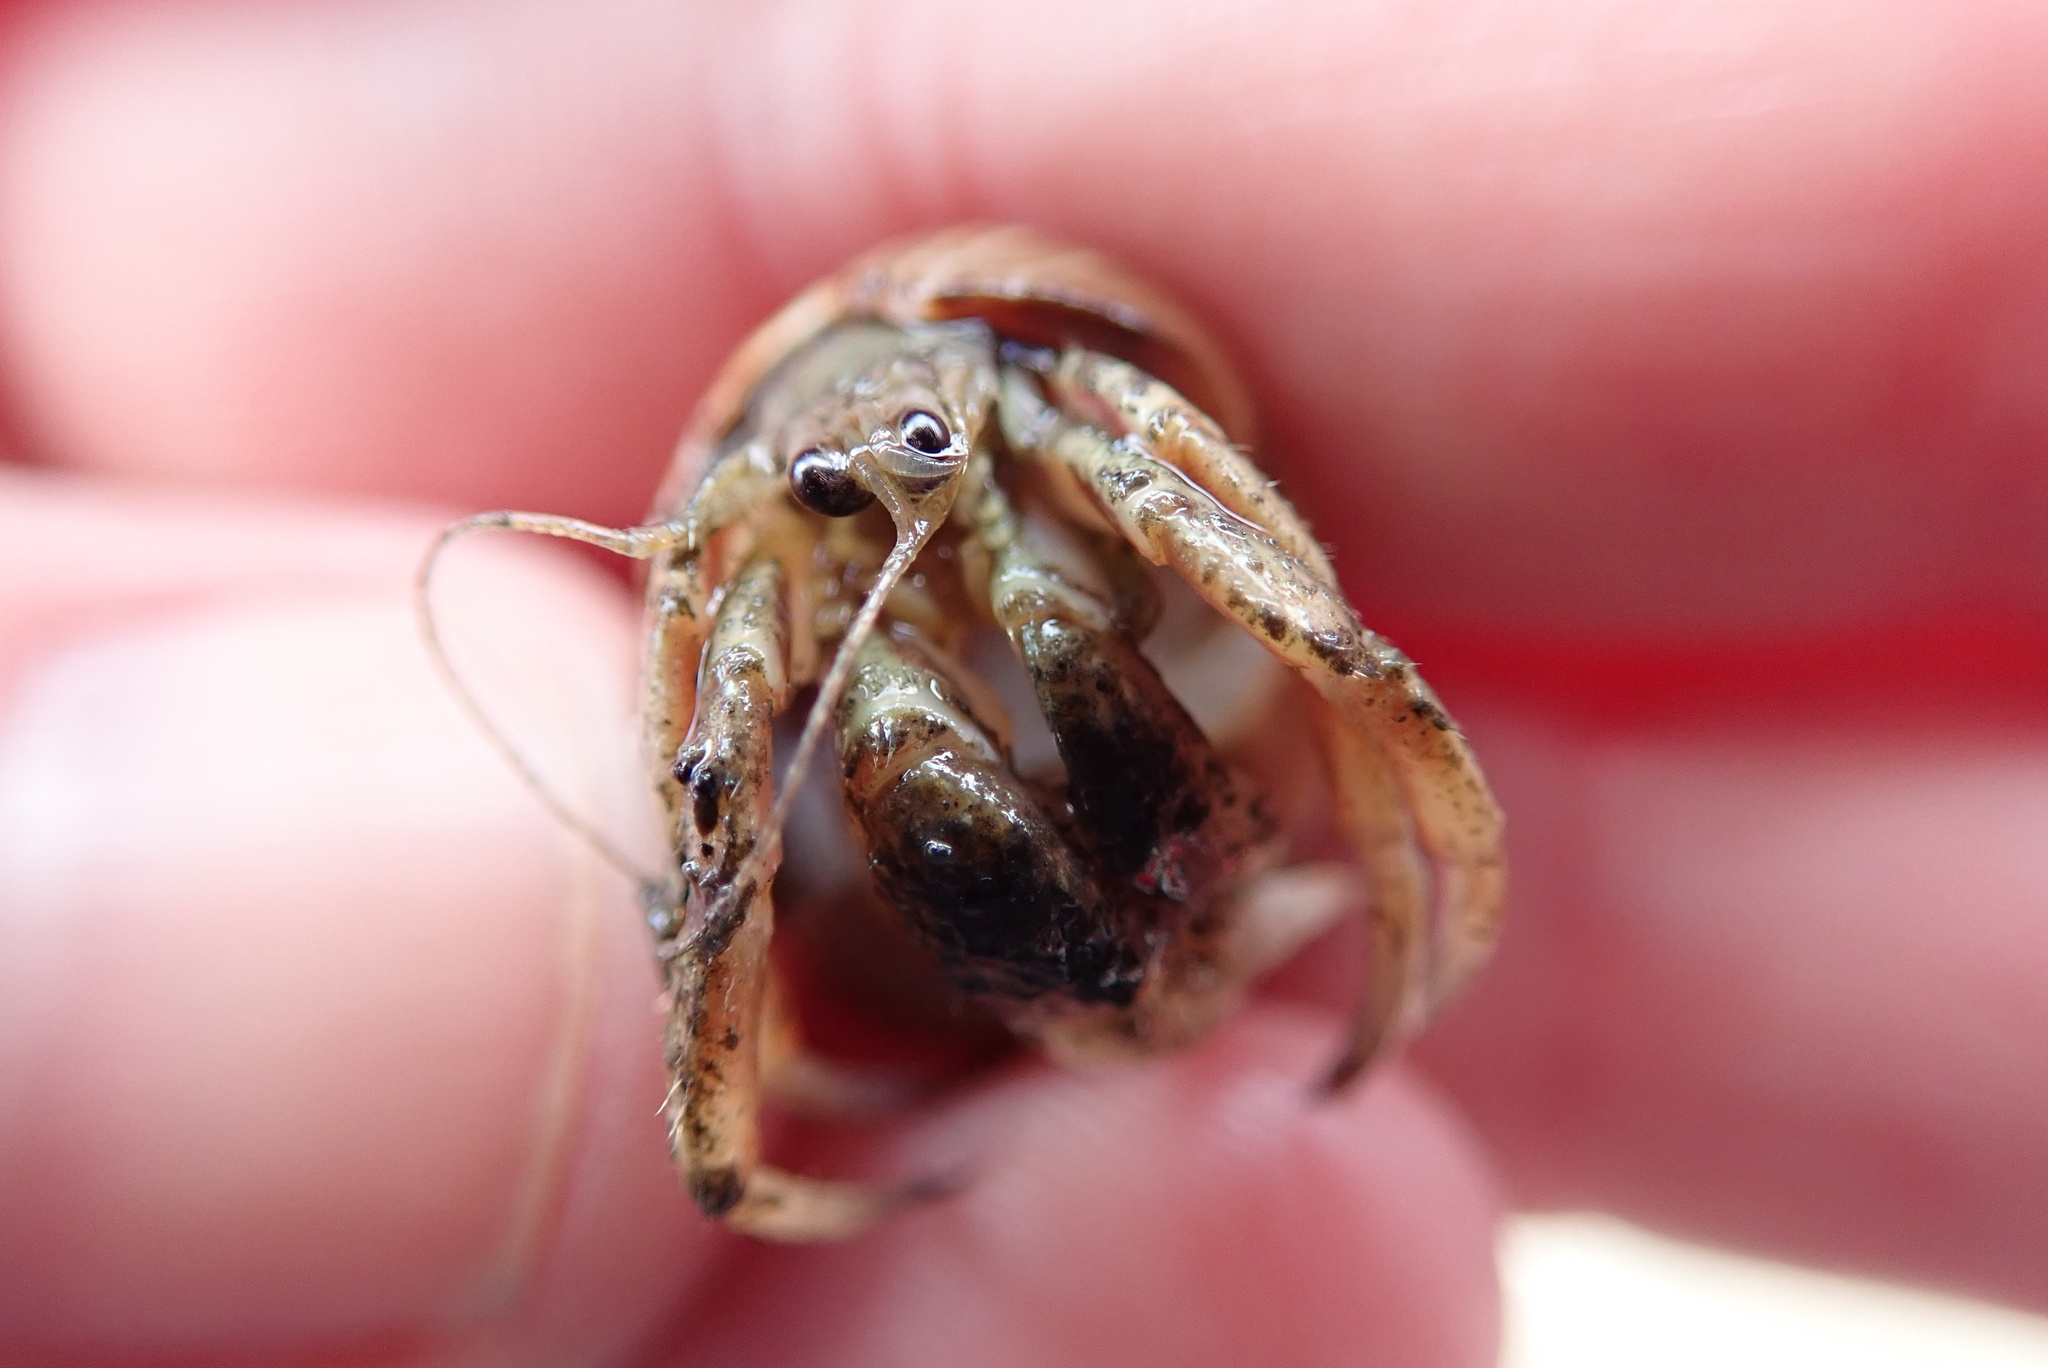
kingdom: Animalia
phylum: Arthropoda
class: Malacostraca
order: Decapoda
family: Paguridae
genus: Pagurus
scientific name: Pagurus longicarpus
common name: Long-armed hermit crab
